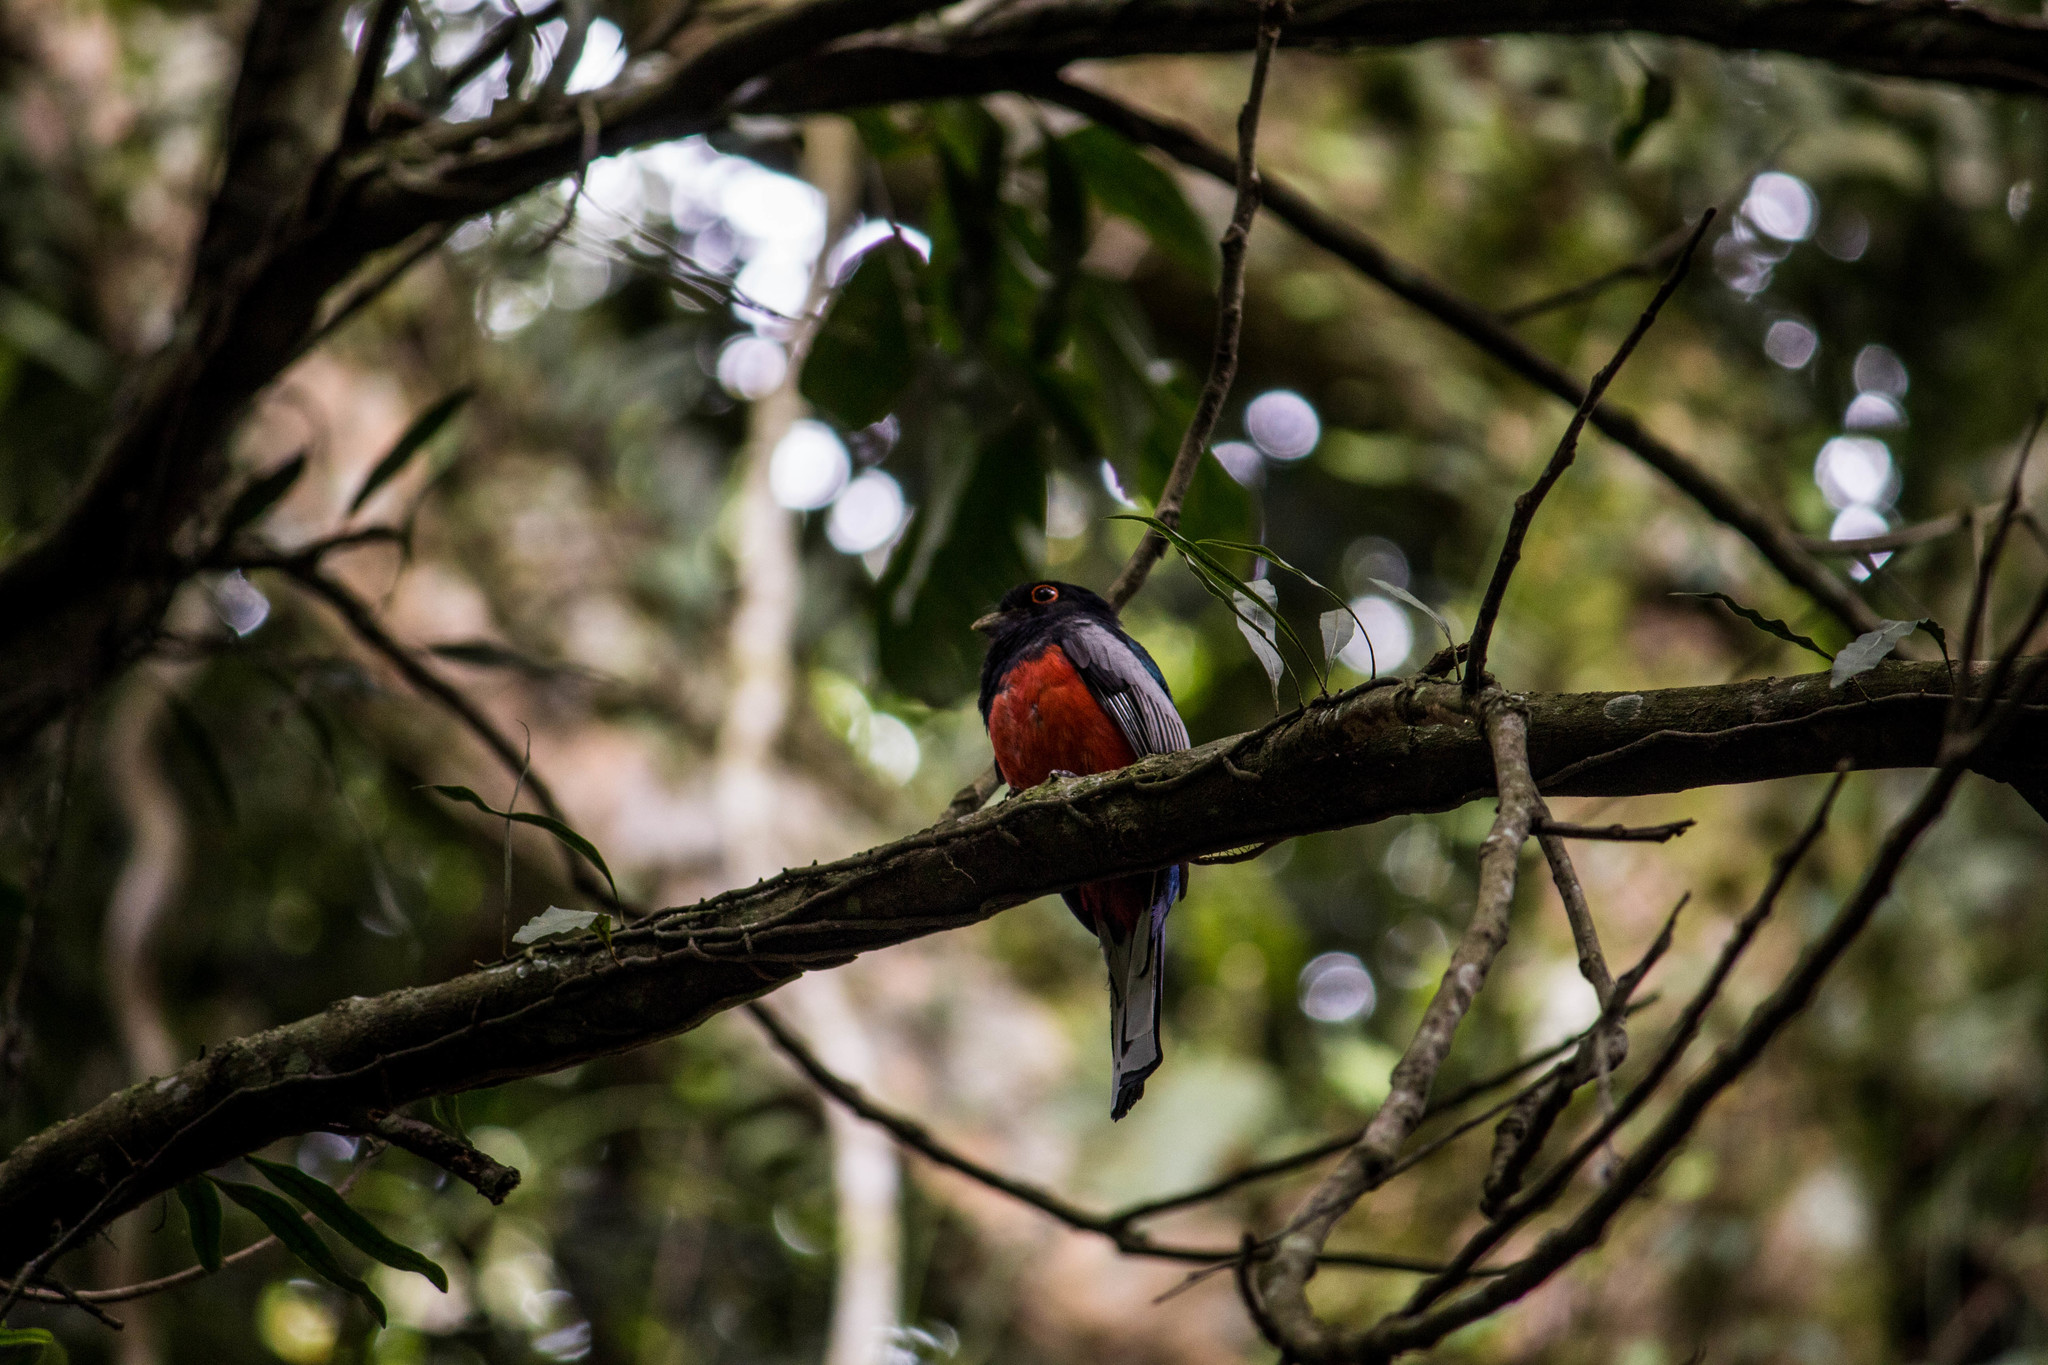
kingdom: Animalia
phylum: Chordata
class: Aves
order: Trogoniformes
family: Trogonidae
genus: Trogon
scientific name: Trogon surrucura
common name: Surucua trogon
